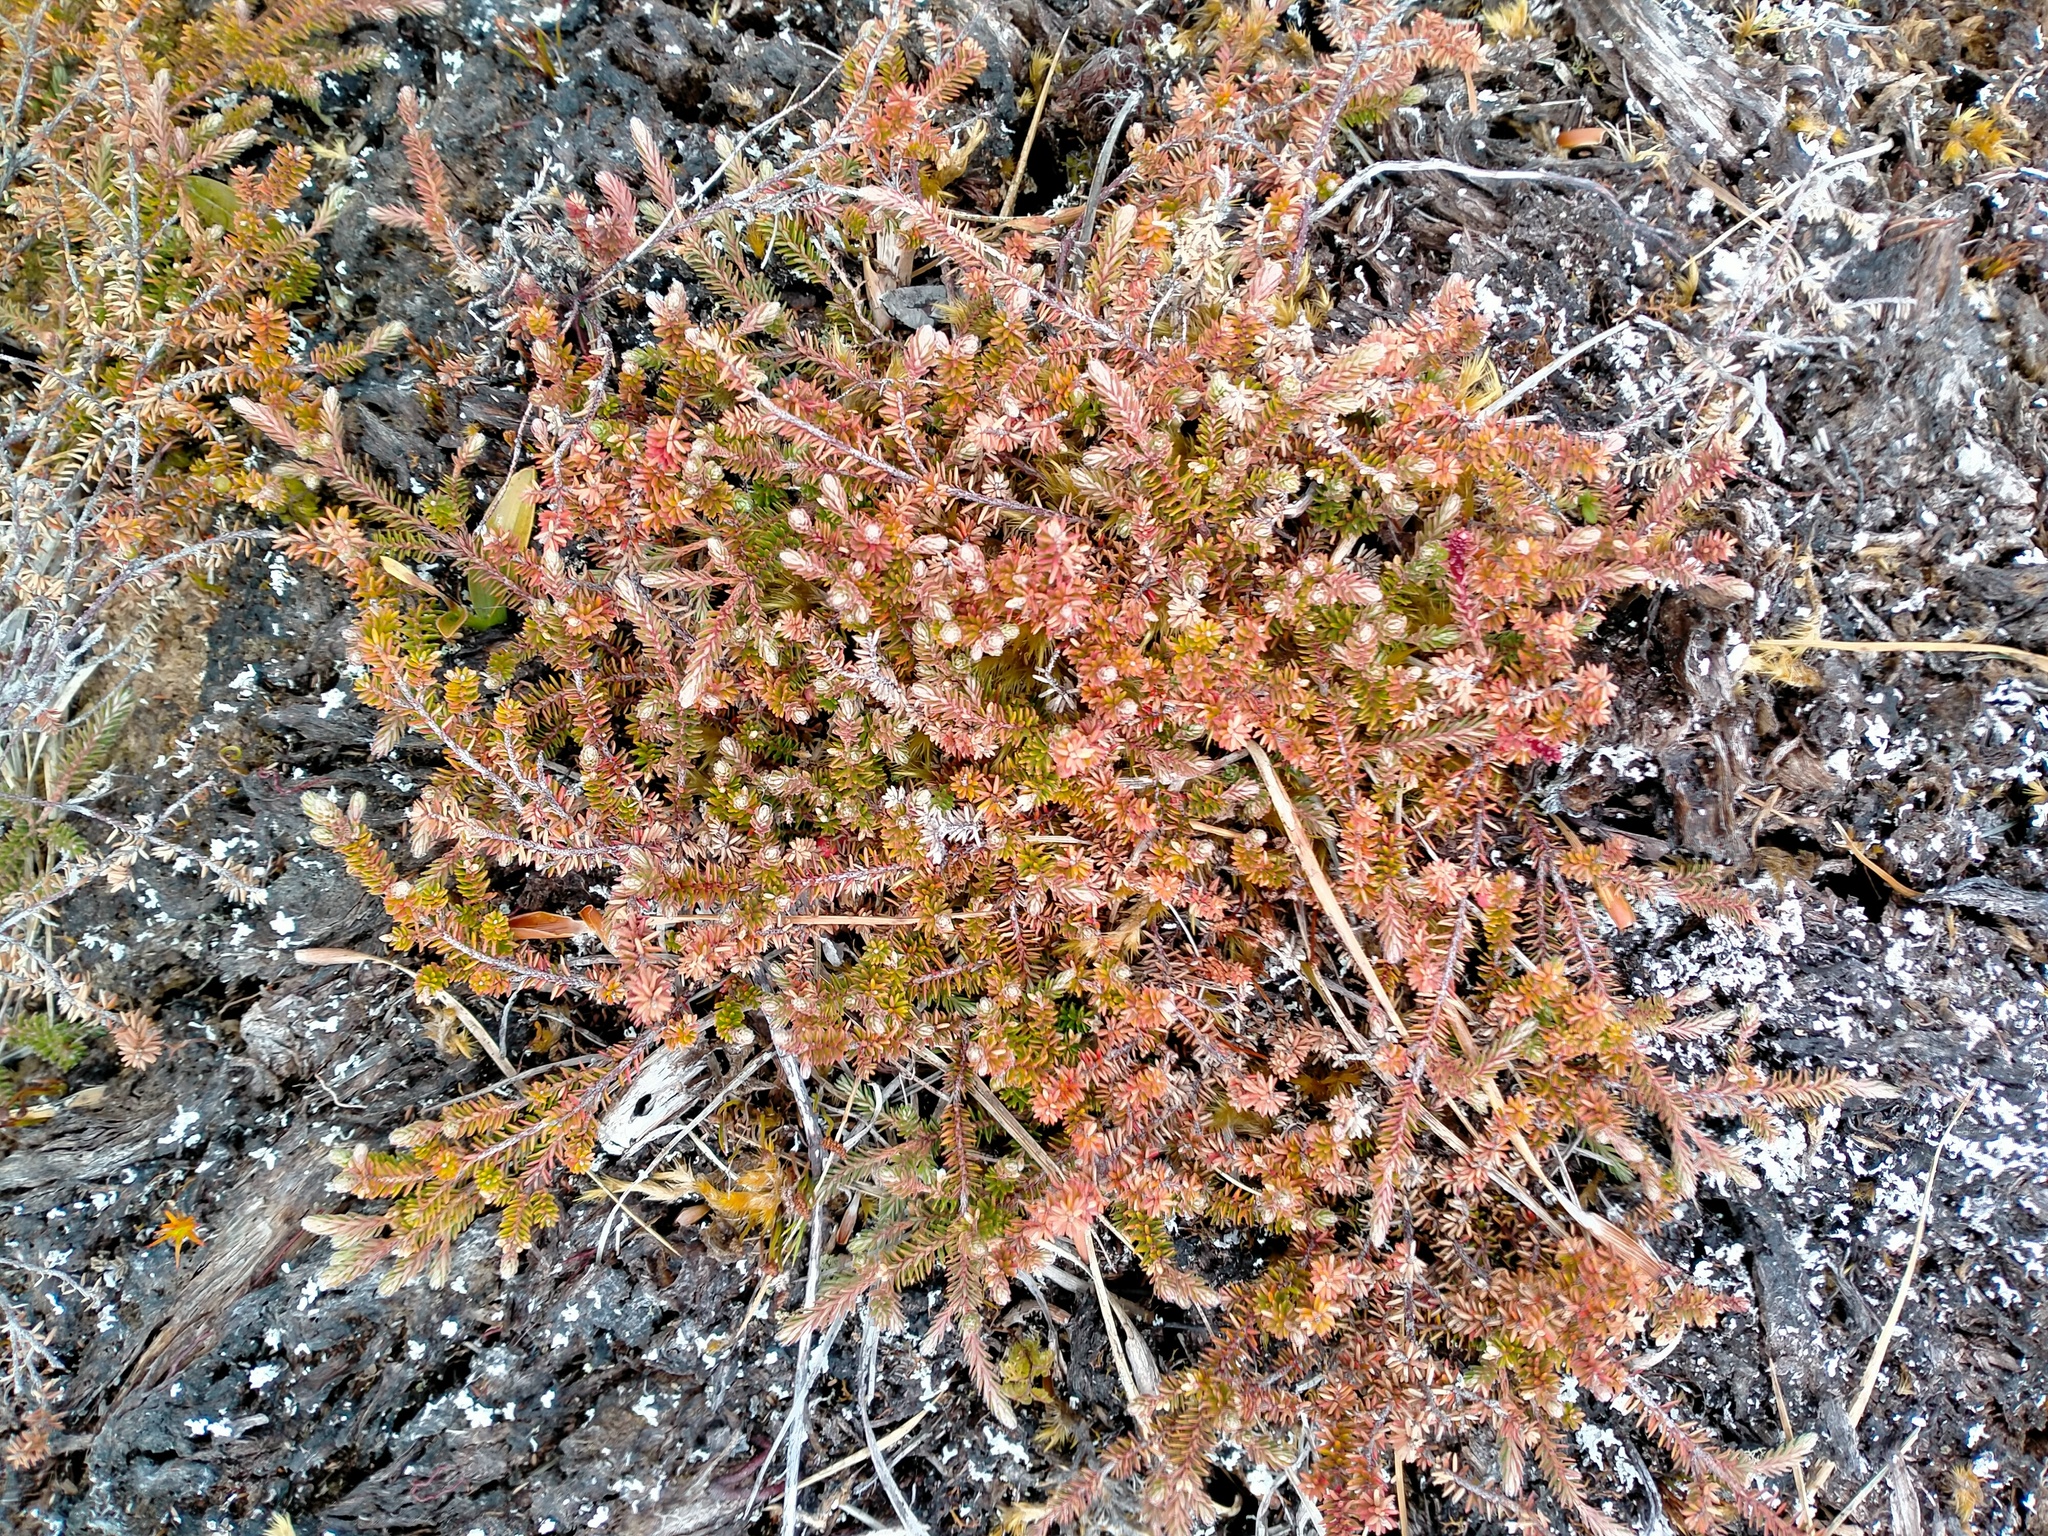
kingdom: Plantae
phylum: Tracheophyta
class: Magnoliopsida
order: Ericales
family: Ericaceae
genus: Androstoma
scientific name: Androstoma empetrifolia
